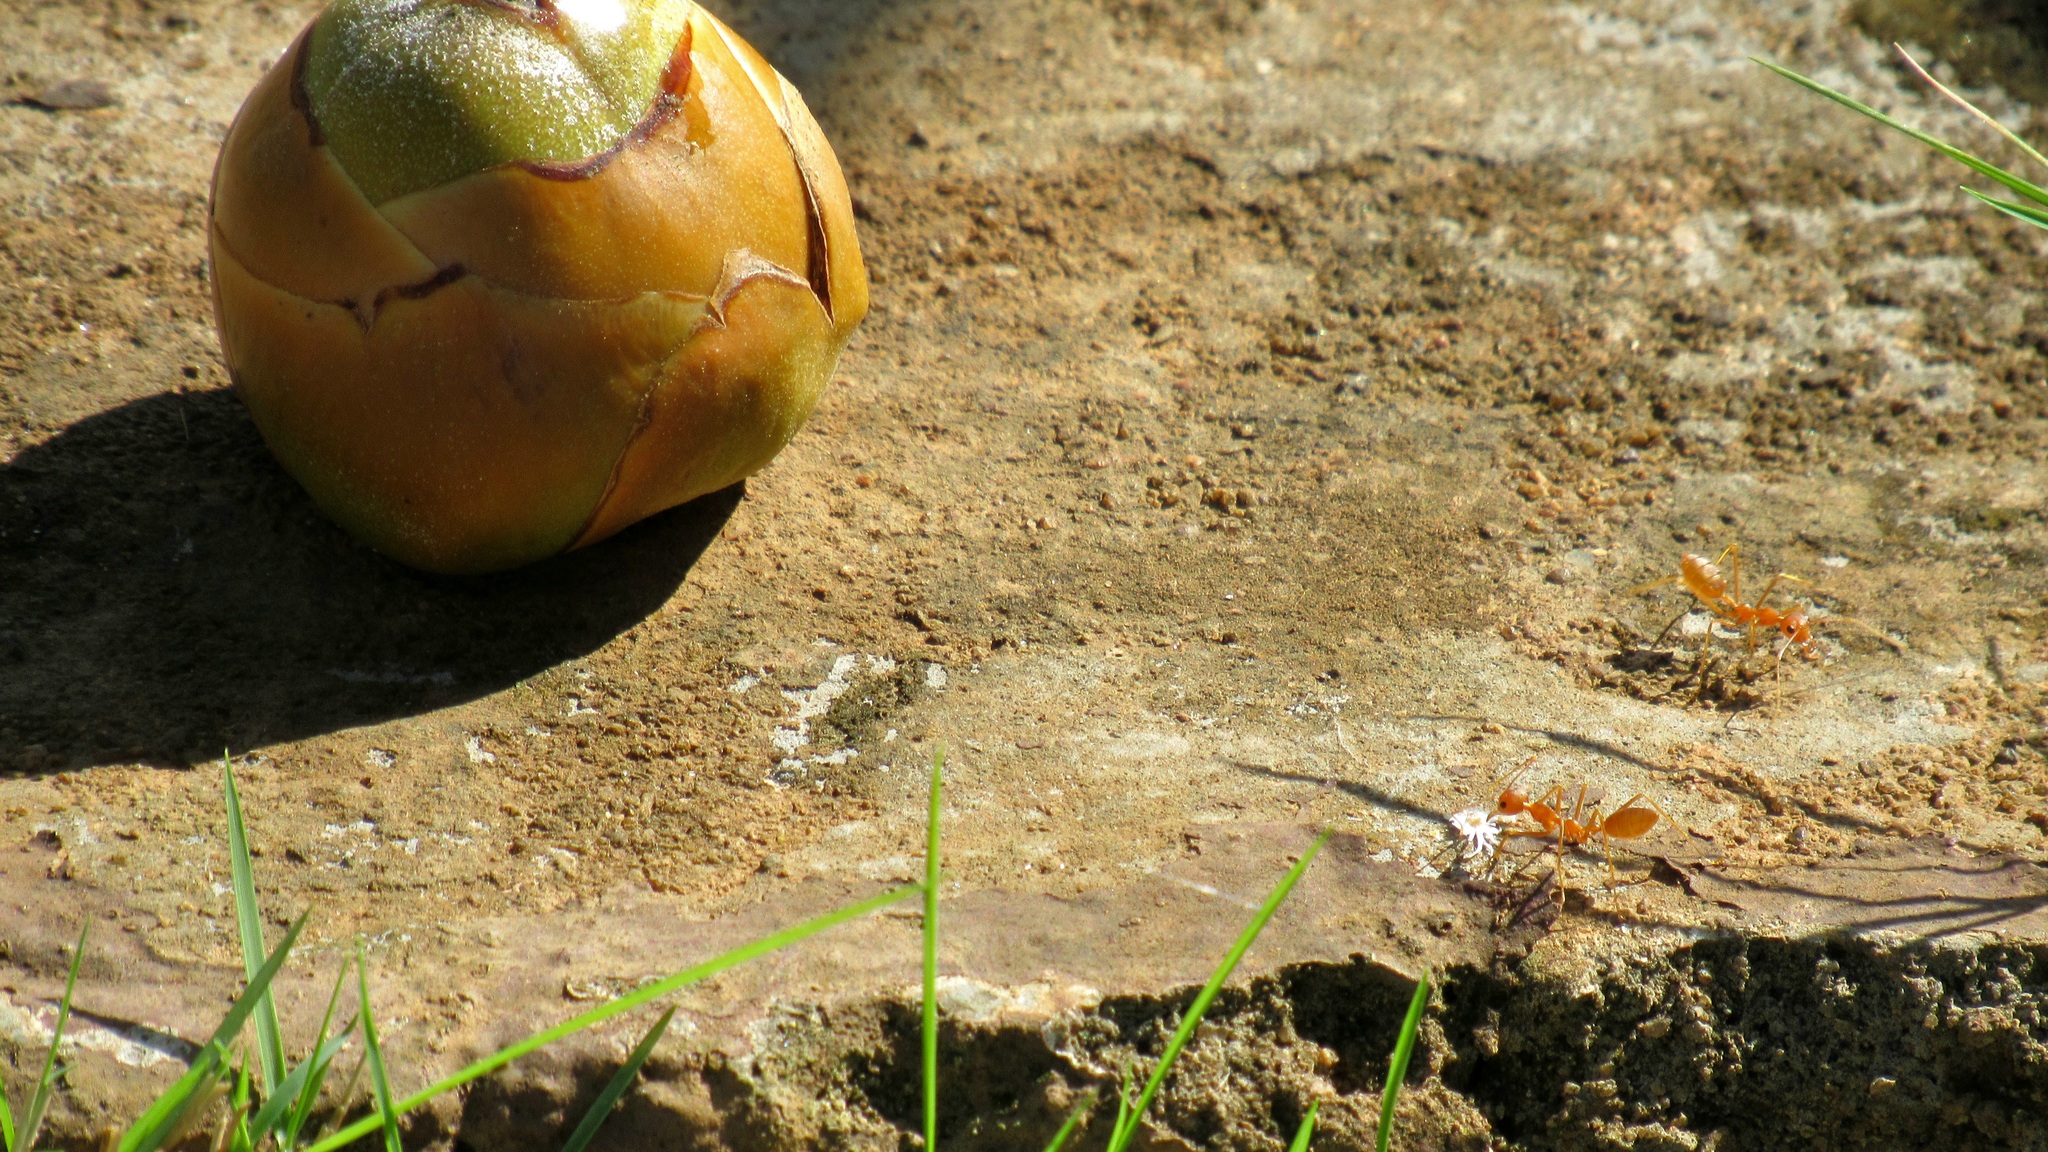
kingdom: Animalia
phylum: Arthropoda
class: Insecta
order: Hymenoptera
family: Formicidae
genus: Oecophylla
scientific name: Oecophylla smaragdina
